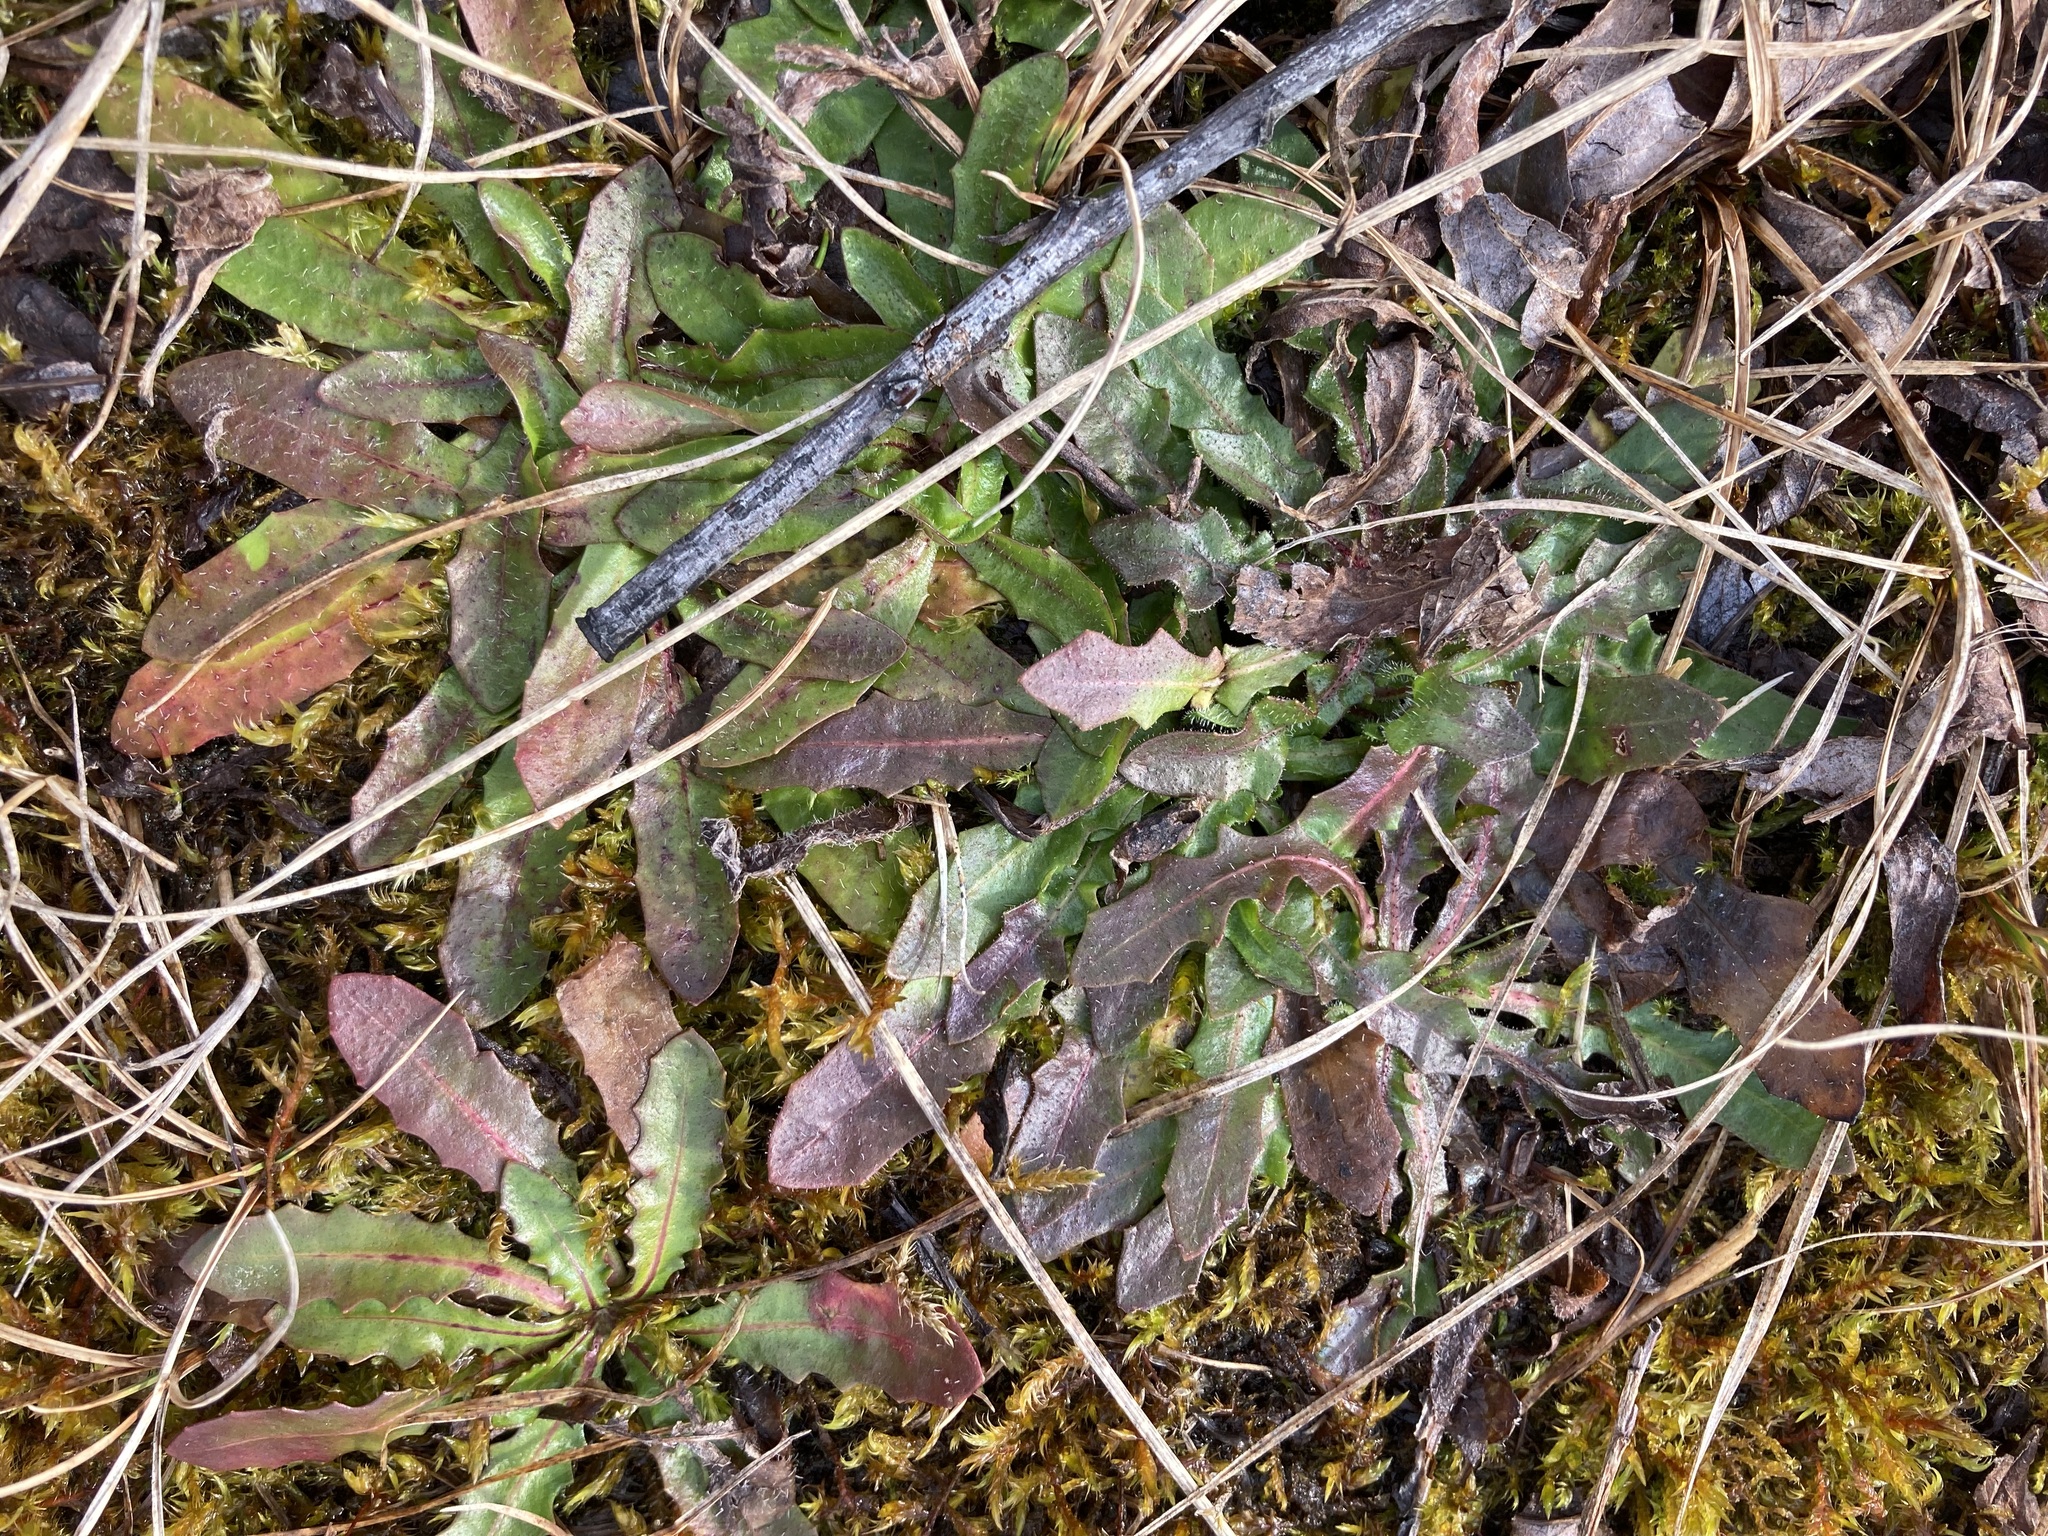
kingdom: Plantae
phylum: Tracheophyta
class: Magnoliopsida
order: Asterales
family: Asteraceae
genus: Hypochaeris
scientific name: Hypochaeris radicata
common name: Flatweed
